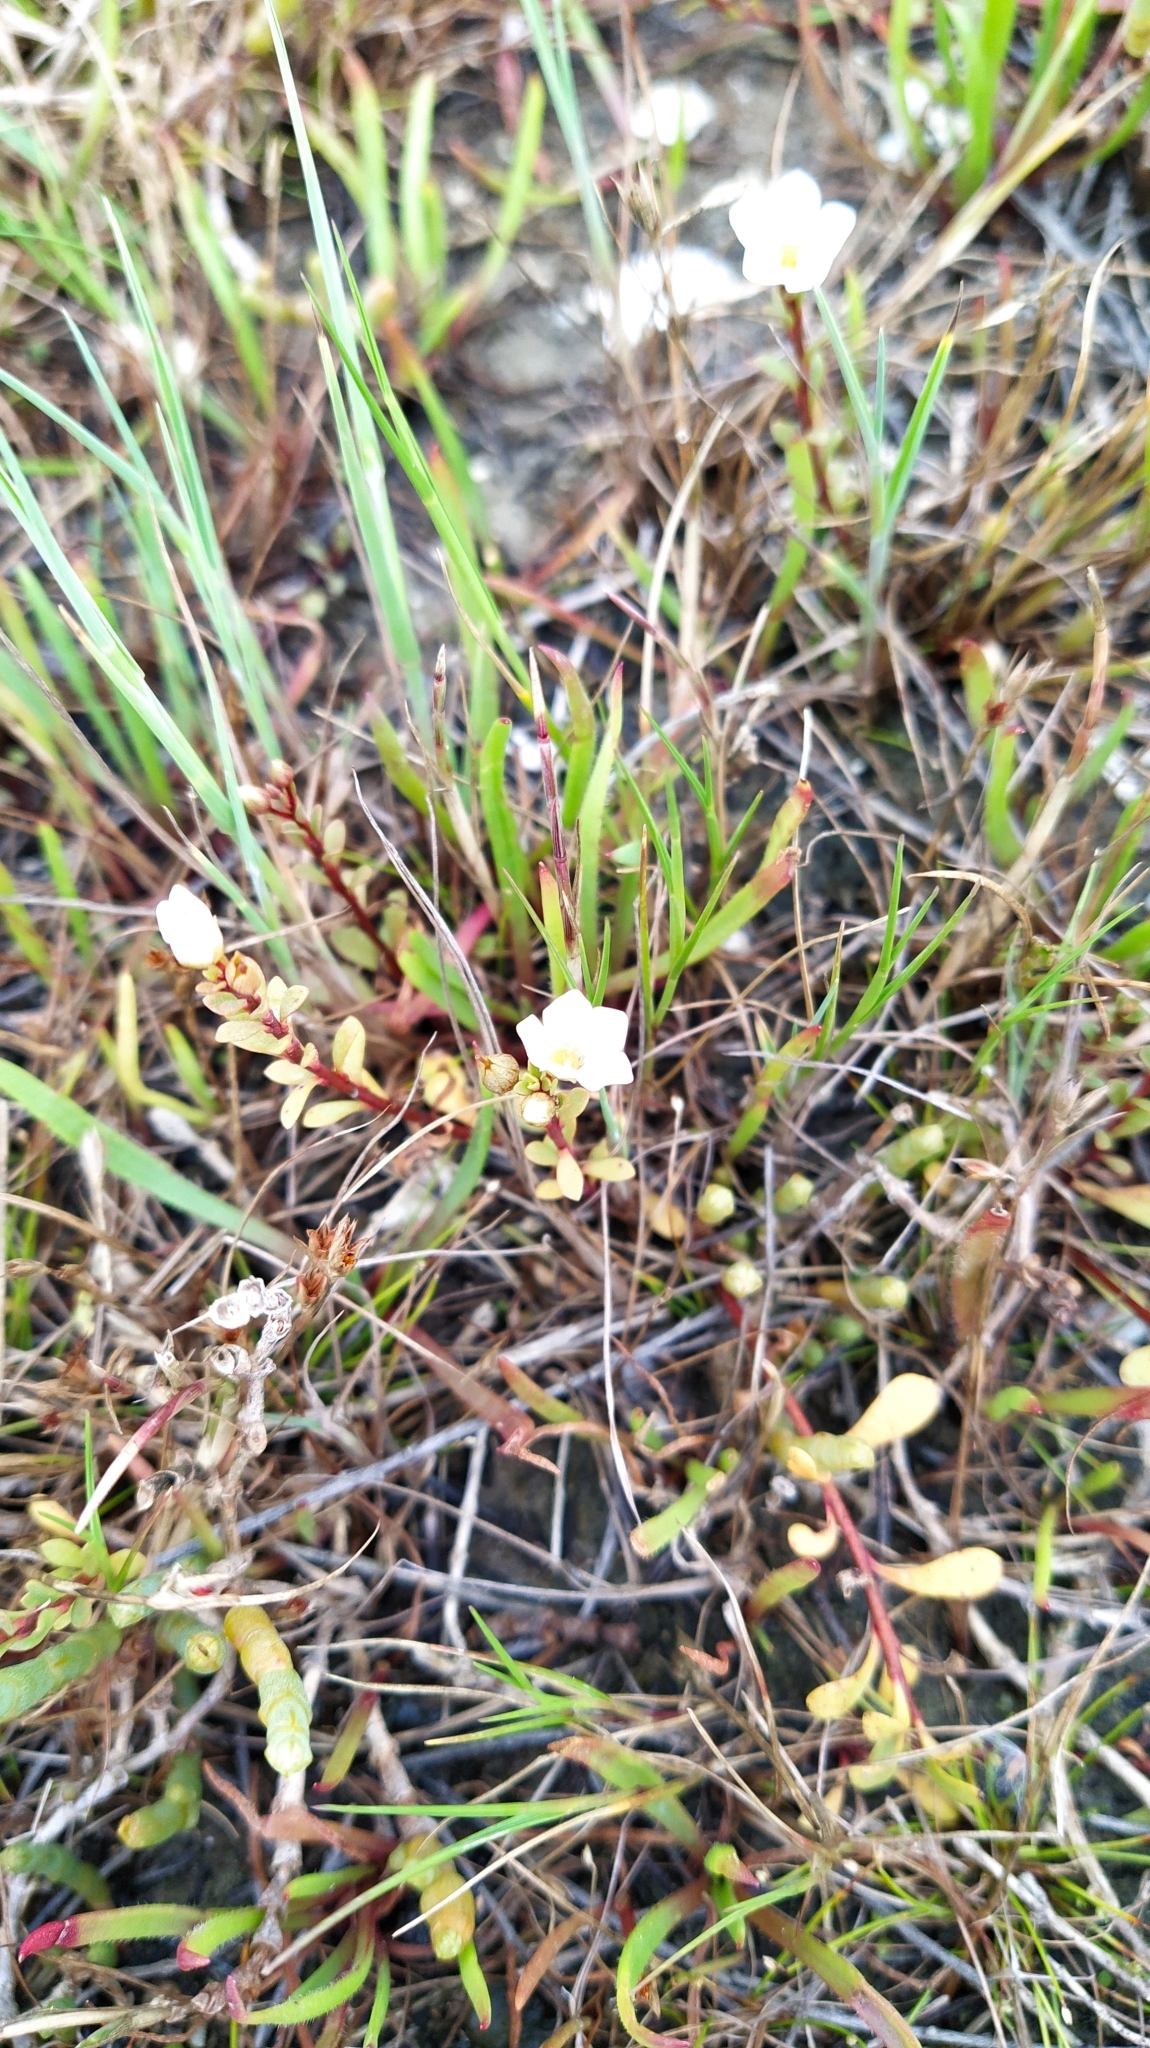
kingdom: Plantae
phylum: Tracheophyta
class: Magnoliopsida
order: Ericales
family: Primulaceae
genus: Samolus
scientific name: Samolus repens
